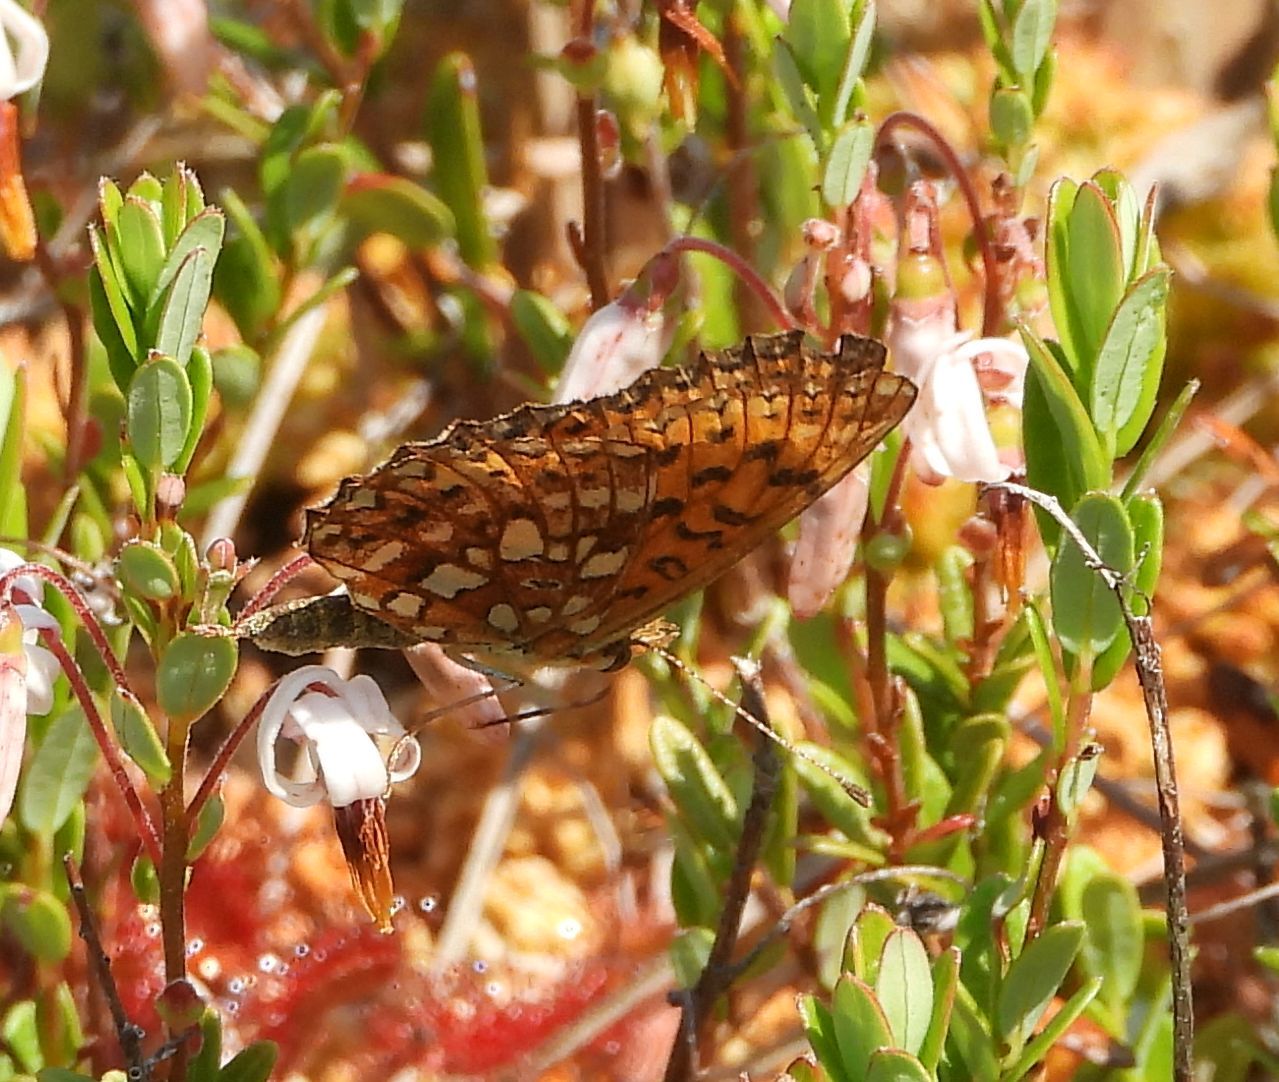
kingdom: Animalia
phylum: Arthropoda
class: Insecta
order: Lepidoptera
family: Nymphalidae
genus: Boloria
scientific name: Boloria
